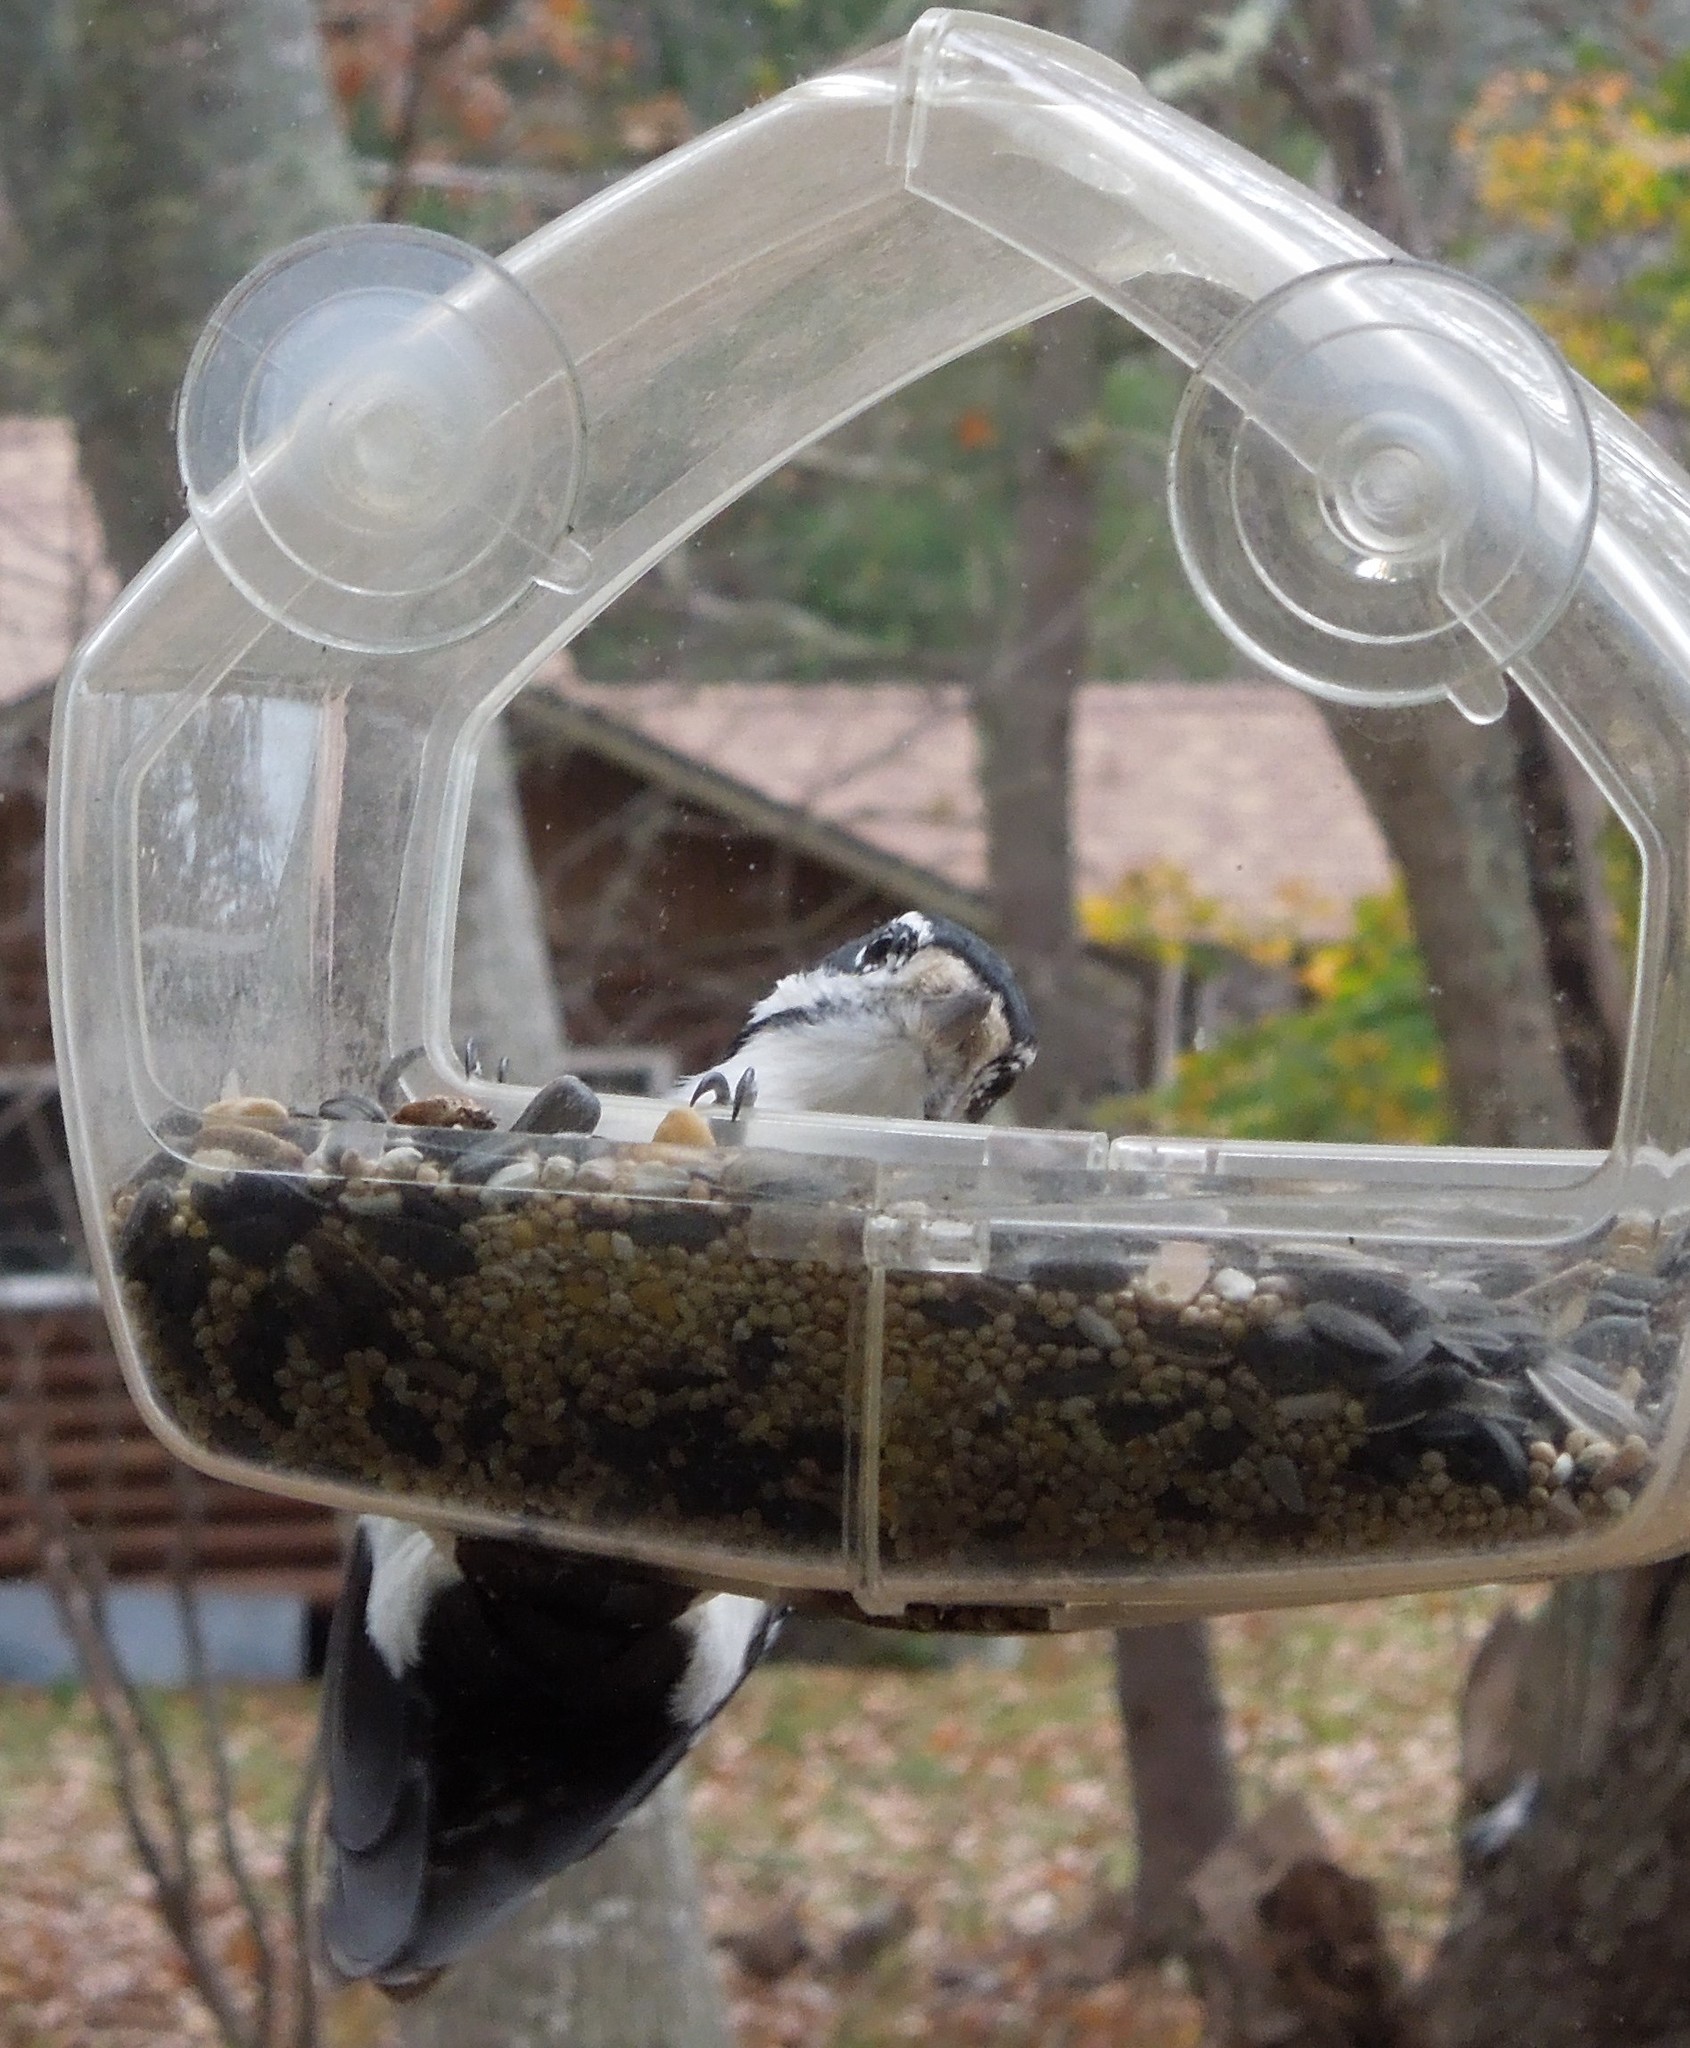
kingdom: Animalia
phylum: Chordata
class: Aves
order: Piciformes
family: Picidae
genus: Dryobates
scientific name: Dryobates
